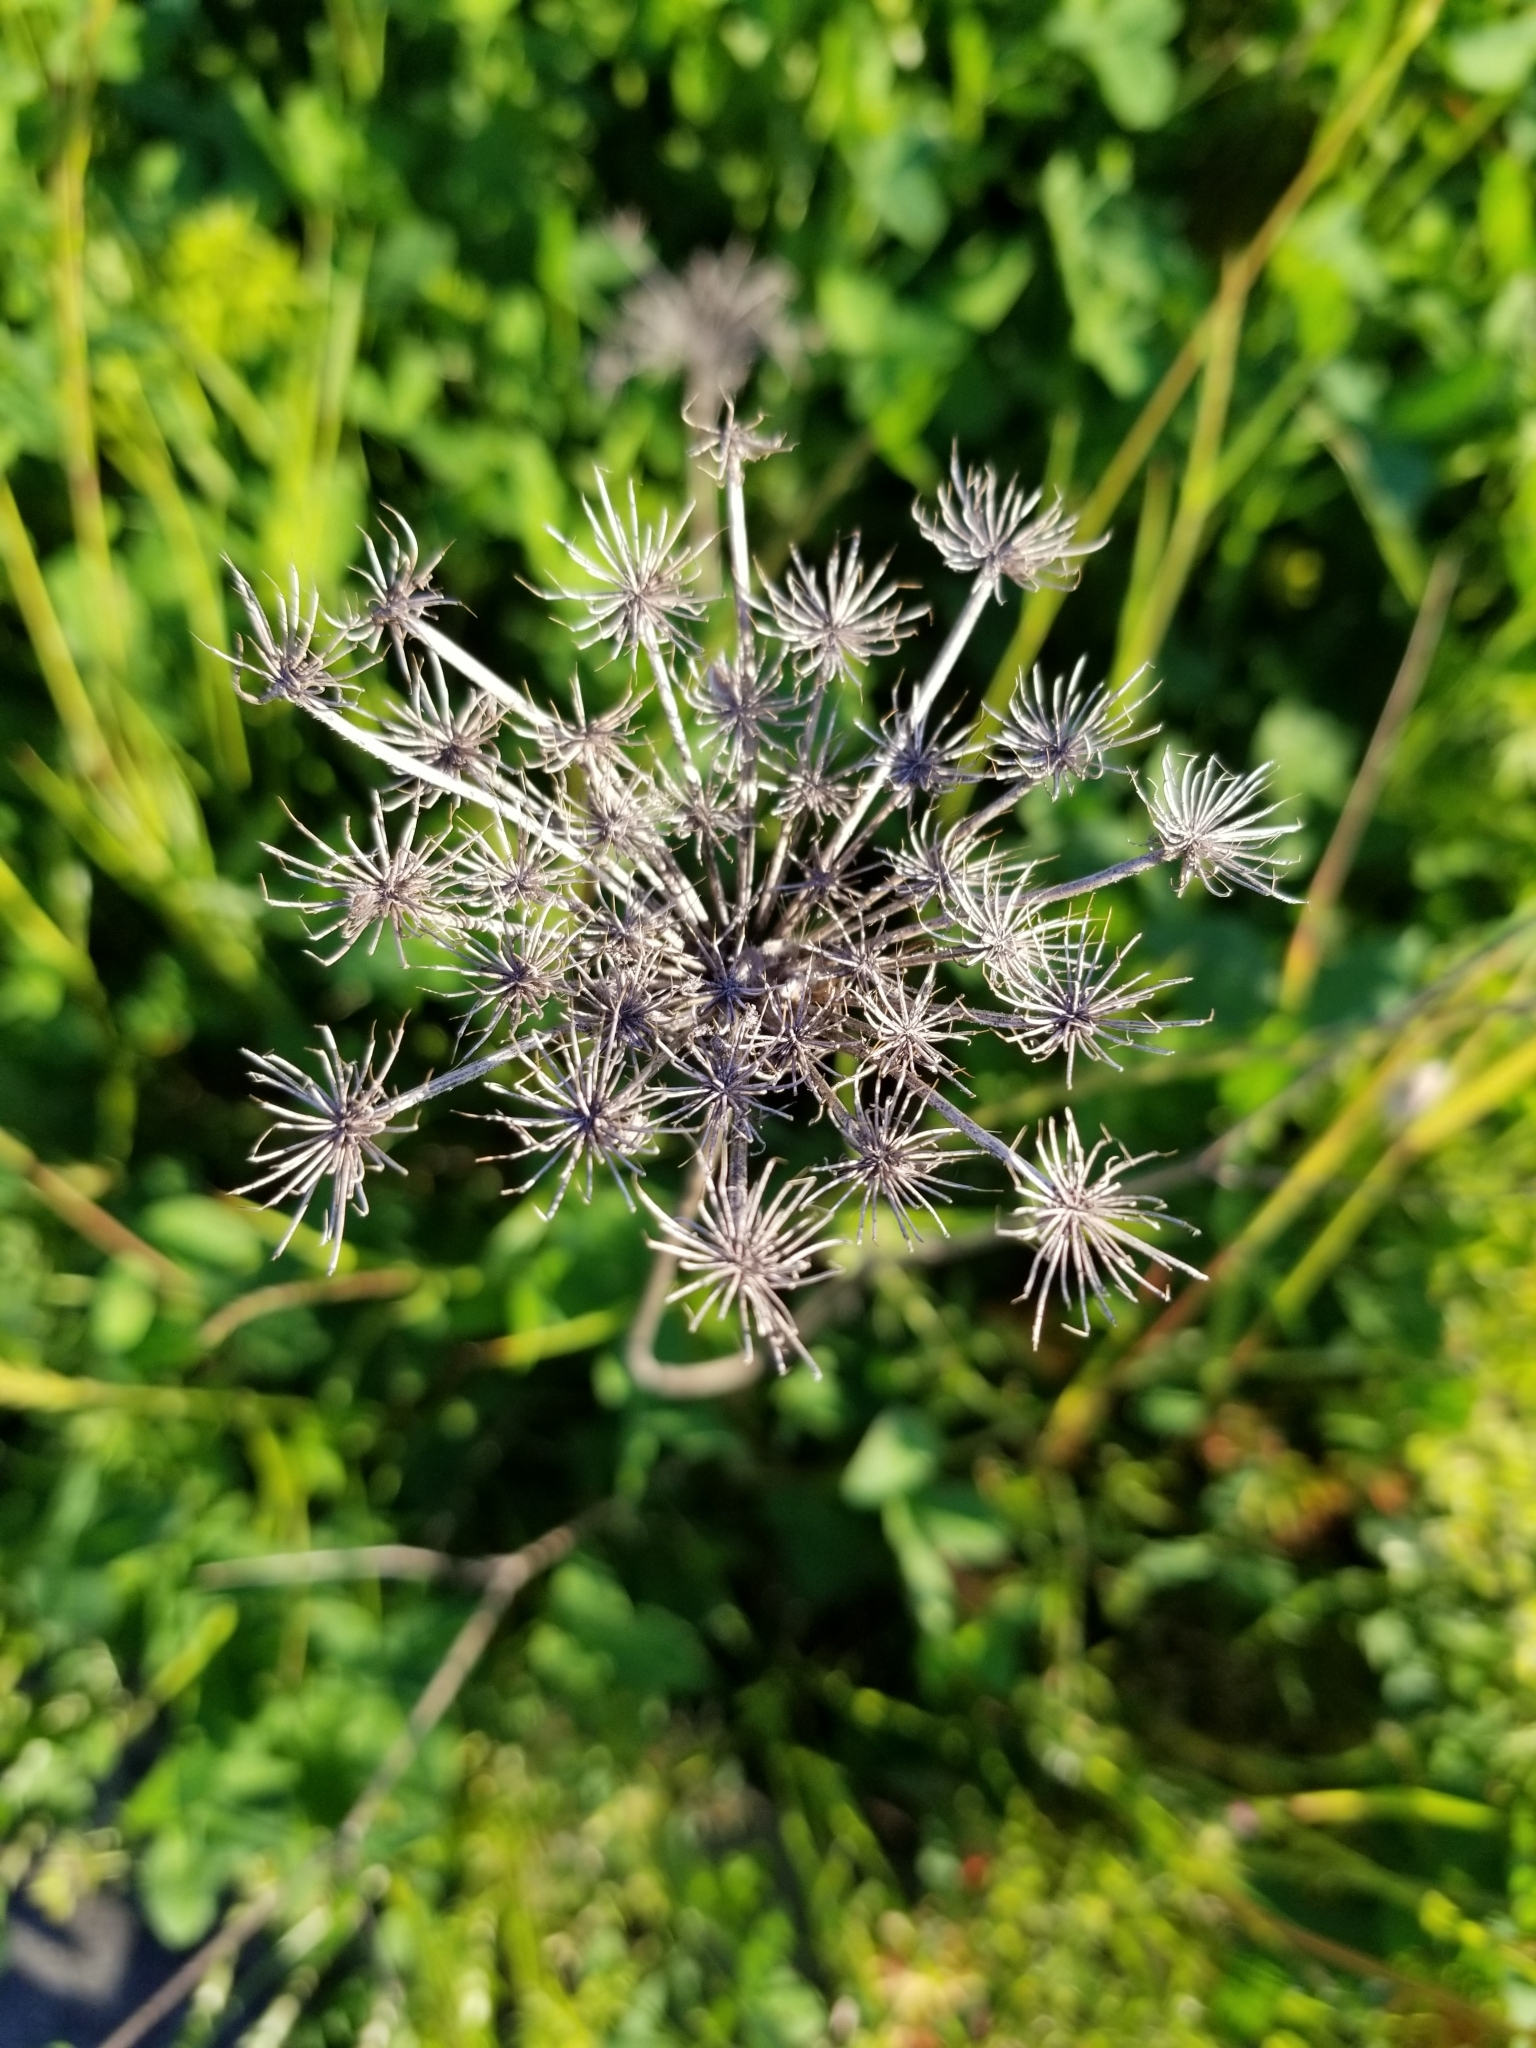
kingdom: Plantae
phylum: Tracheophyta
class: Magnoliopsida
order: Apiales
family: Apiaceae
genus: Daucus
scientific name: Daucus carota
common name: Wild carrot
